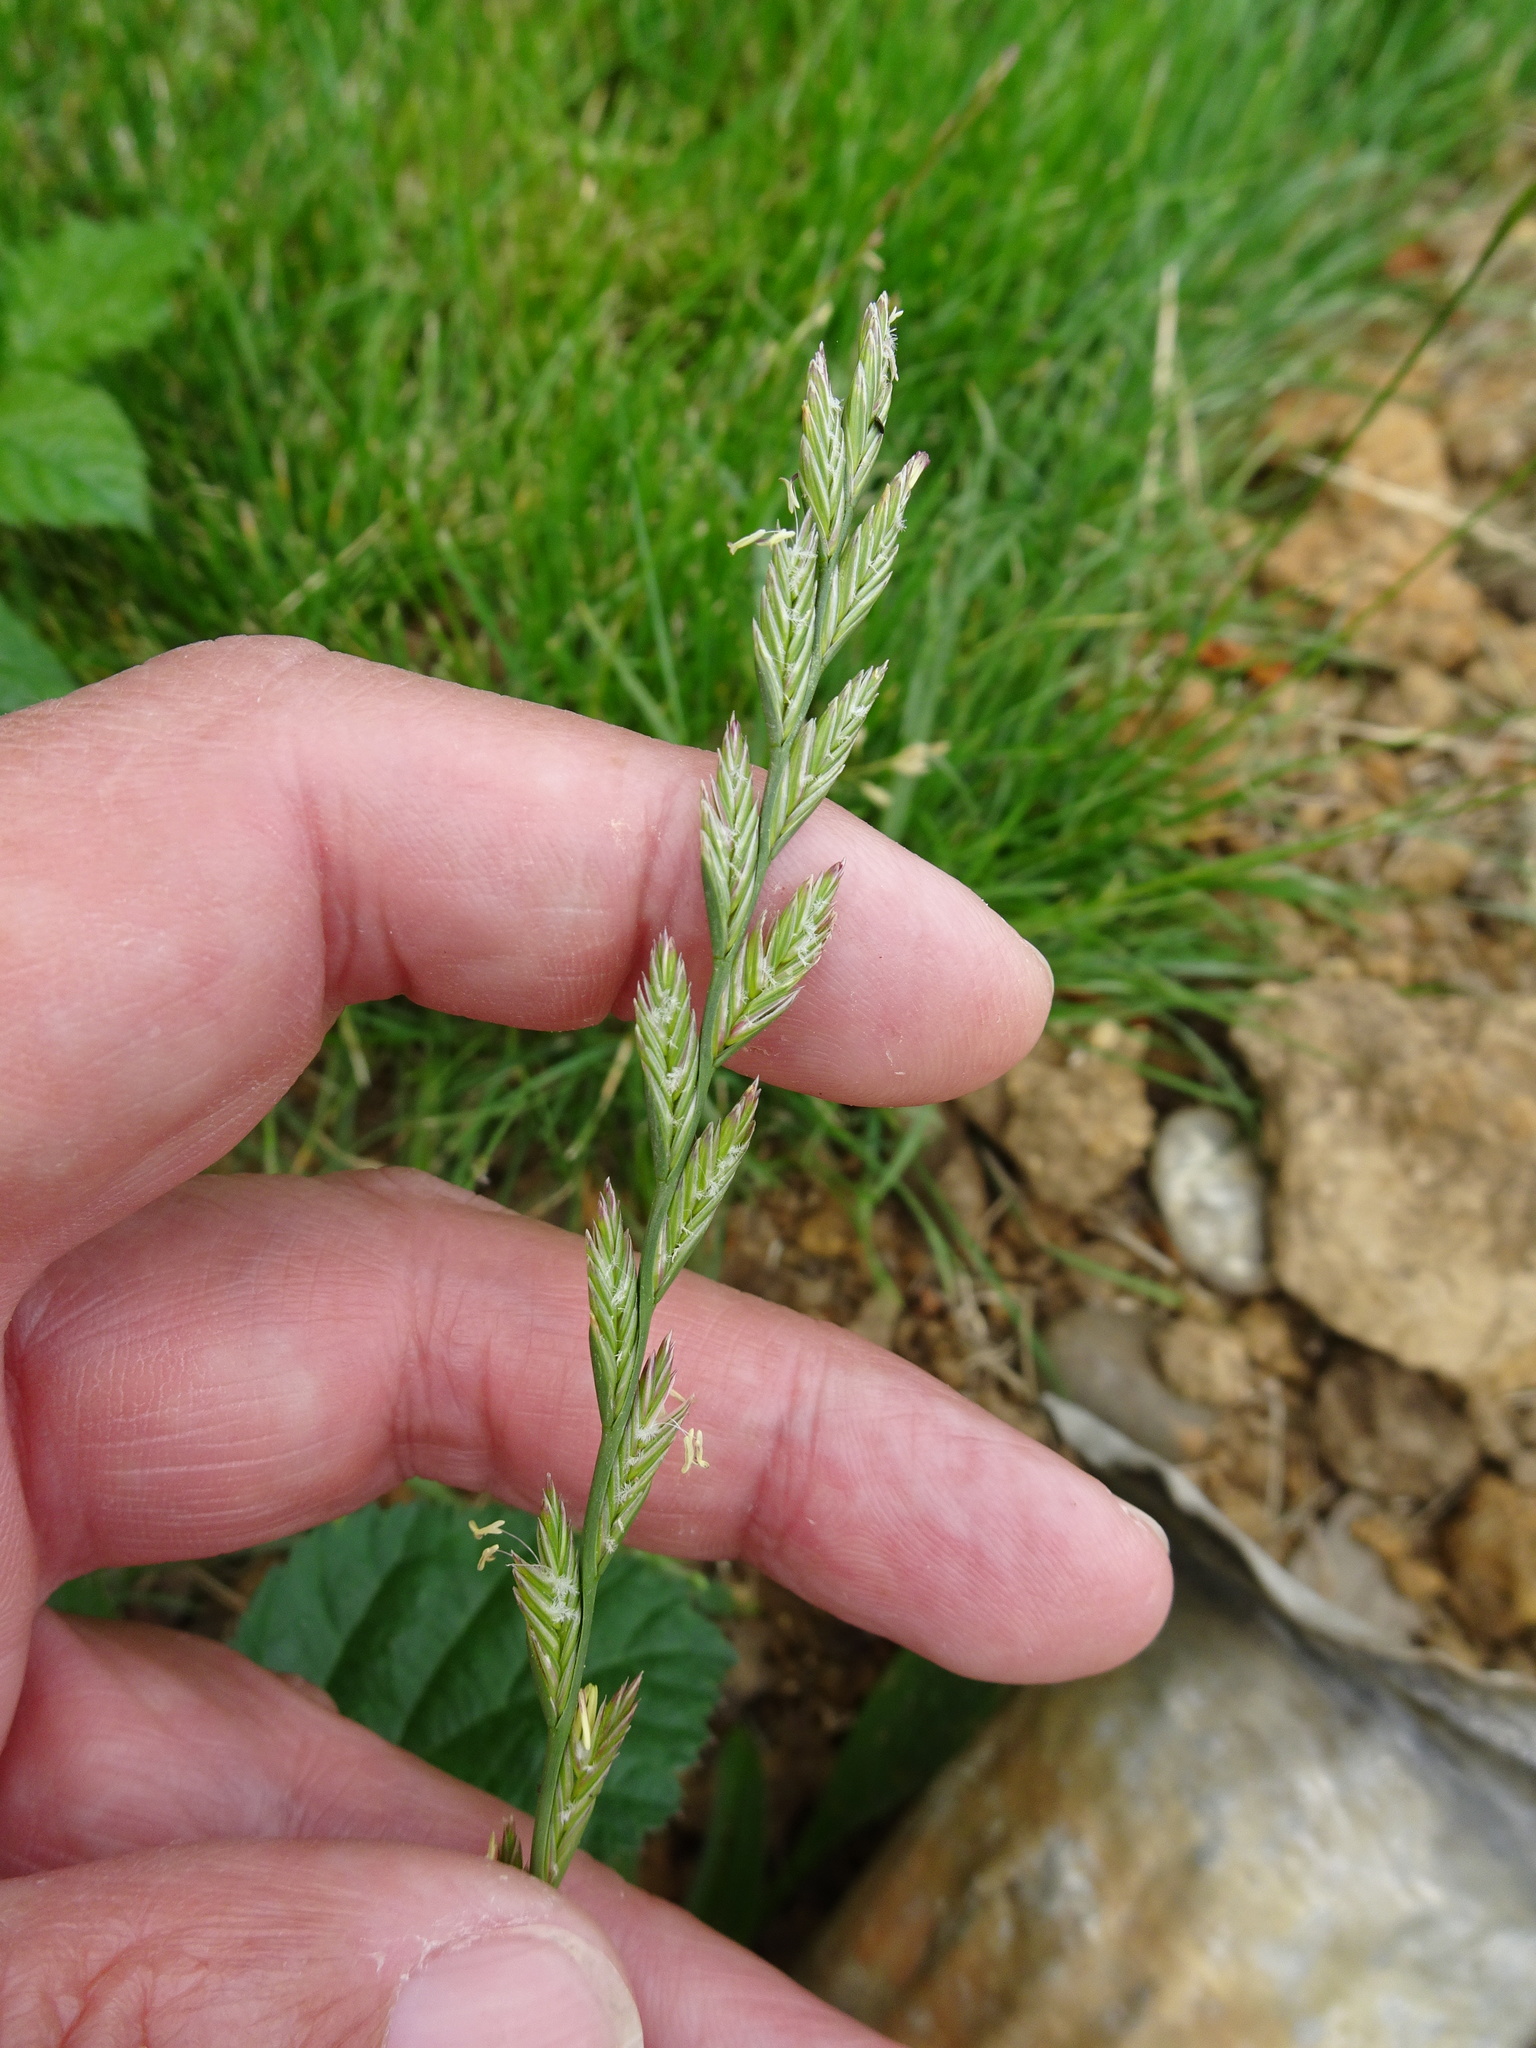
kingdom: Plantae
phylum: Tracheophyta
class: Liliopsida
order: Poales
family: Poaceae
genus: Lolium
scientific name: Lolium perenne
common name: Perennial ryegrass
